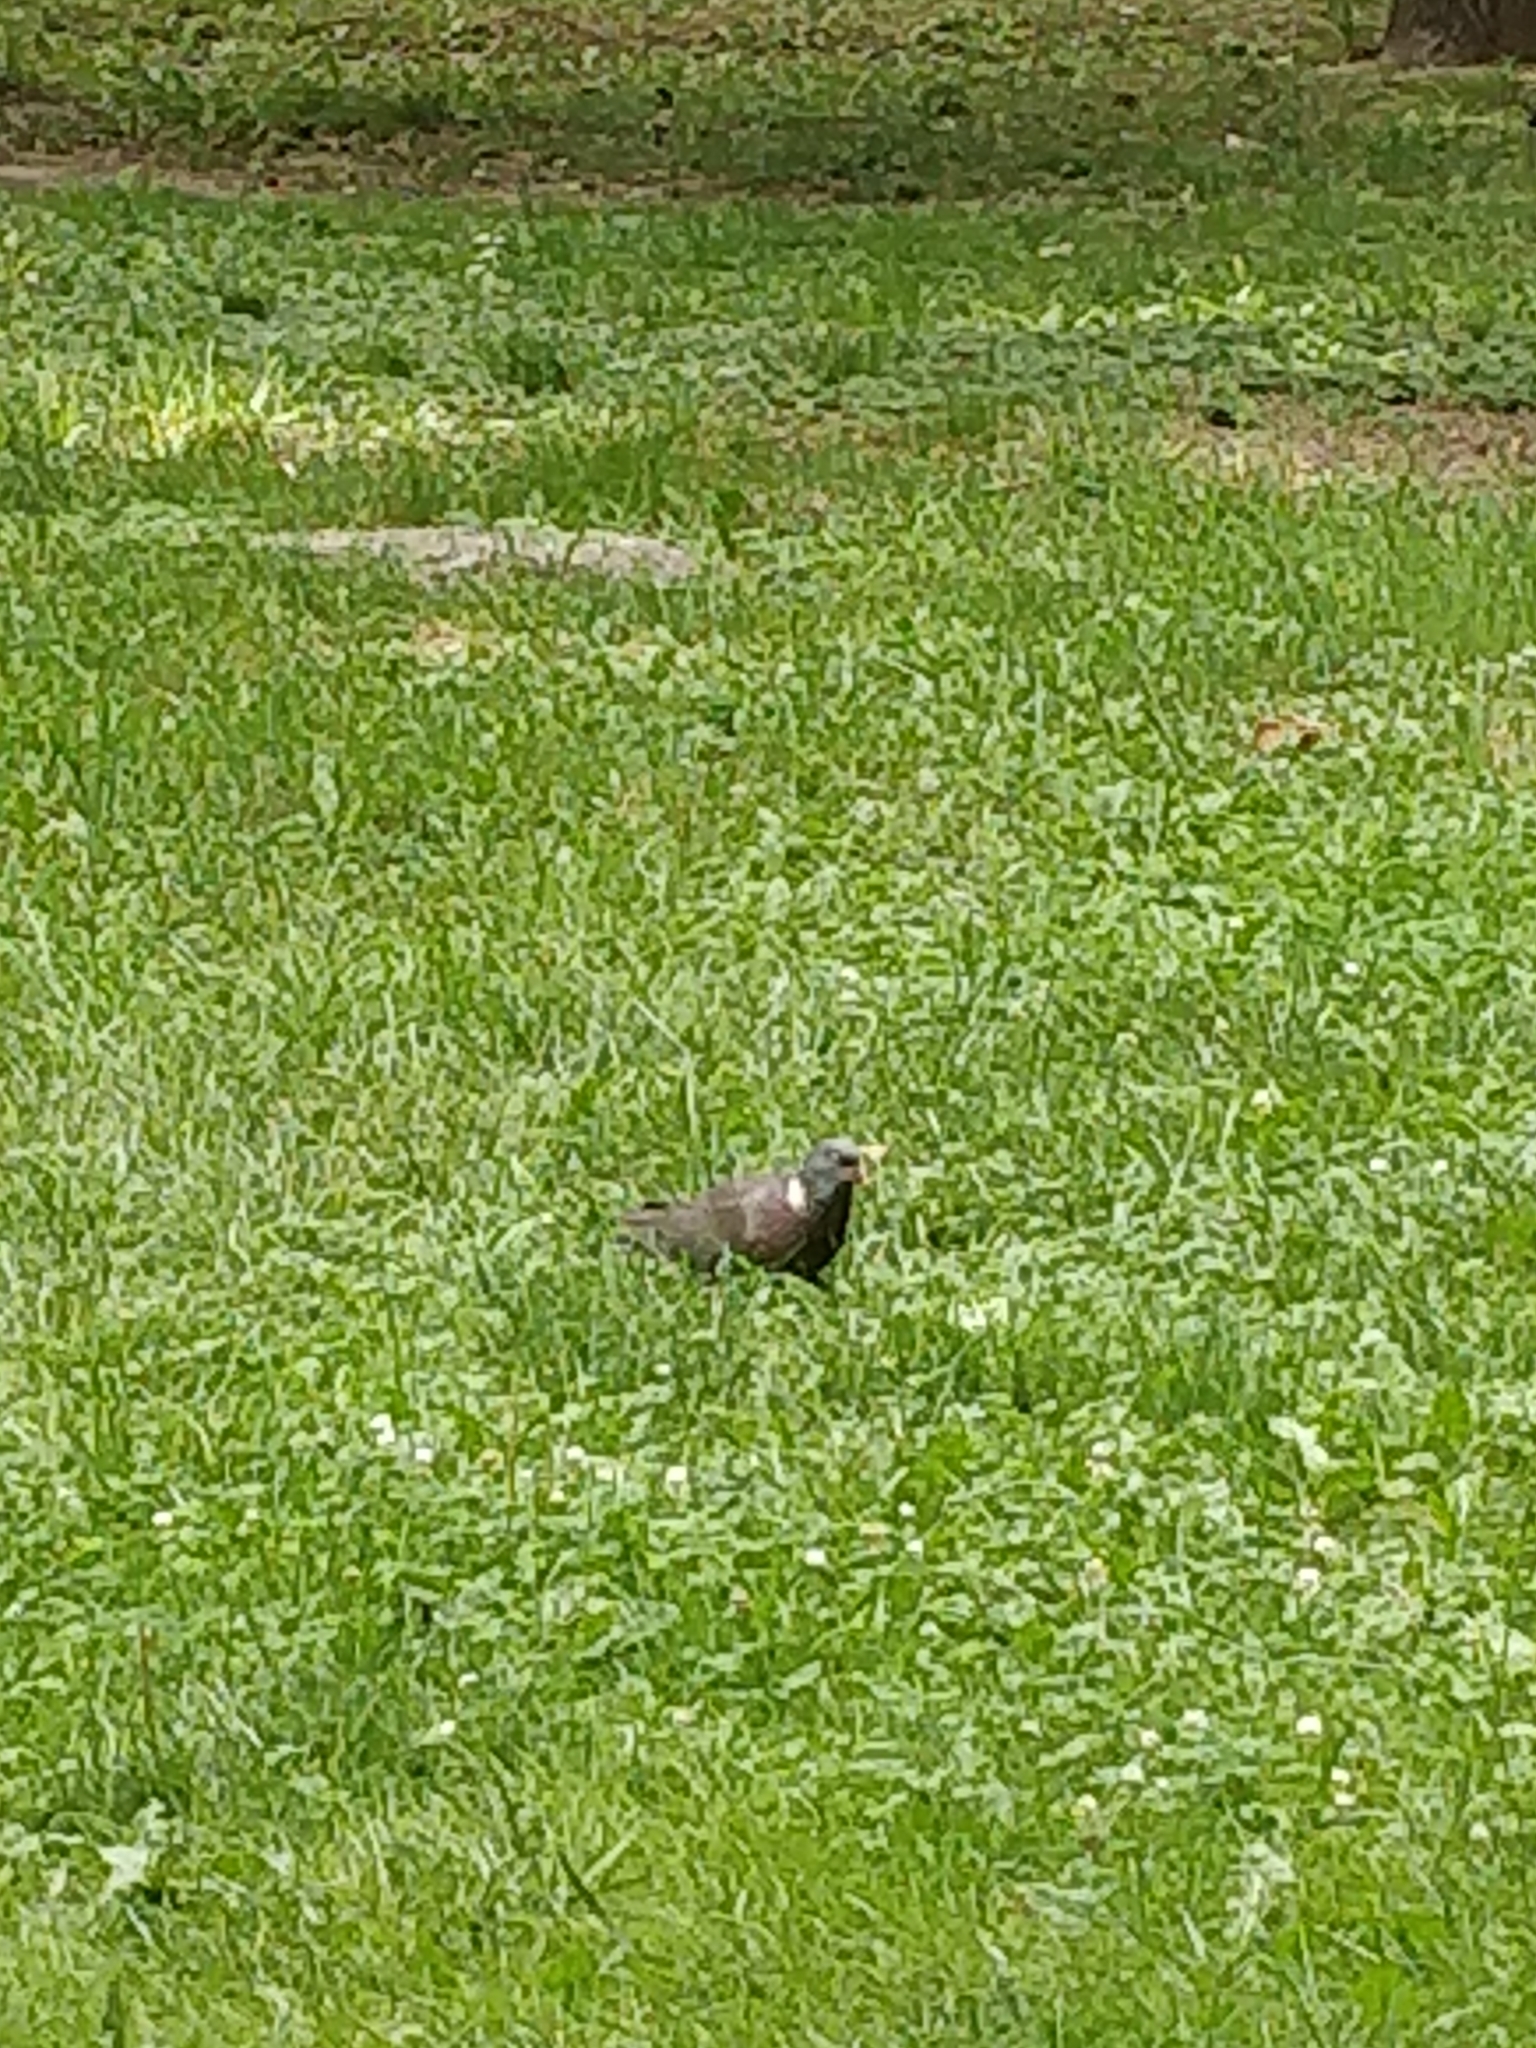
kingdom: Animalia
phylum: Chordata
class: Aves
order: Columbiformes
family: Columbidae
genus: Columba
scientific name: Columba palumbus
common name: Common wood pigeon
